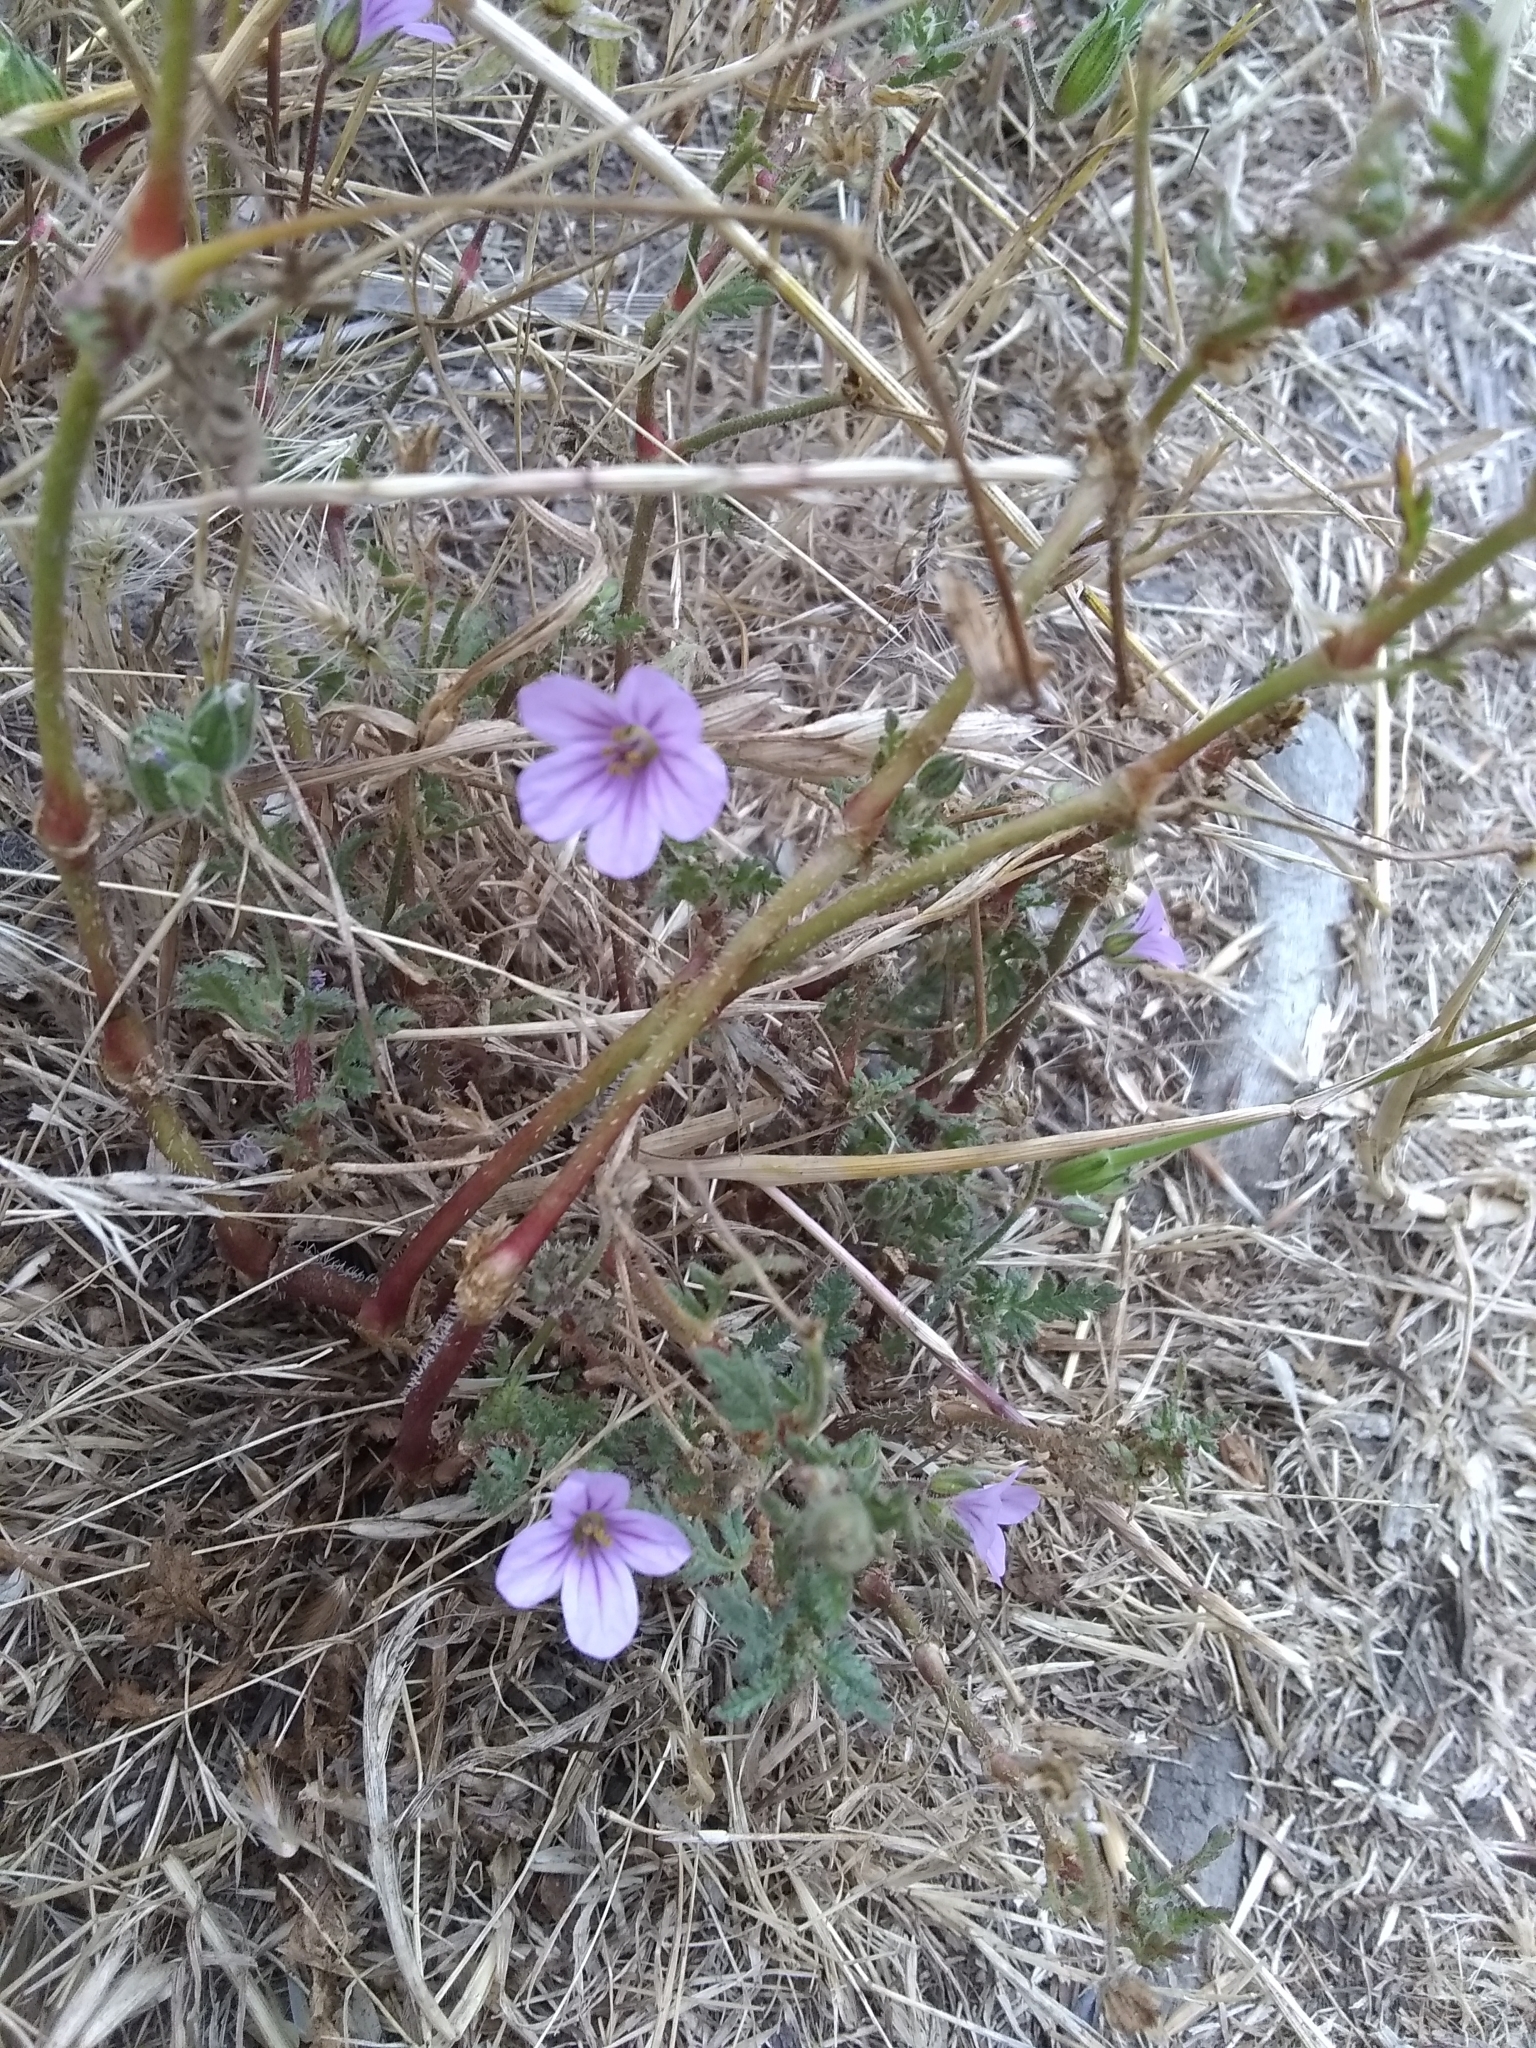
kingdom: Plantae
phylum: Tracheophyta
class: Magnoliopsida
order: Geraniales
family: Geraniaceae
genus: Erodium
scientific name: Erodium botrys
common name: Mediterranean stork's-bill
